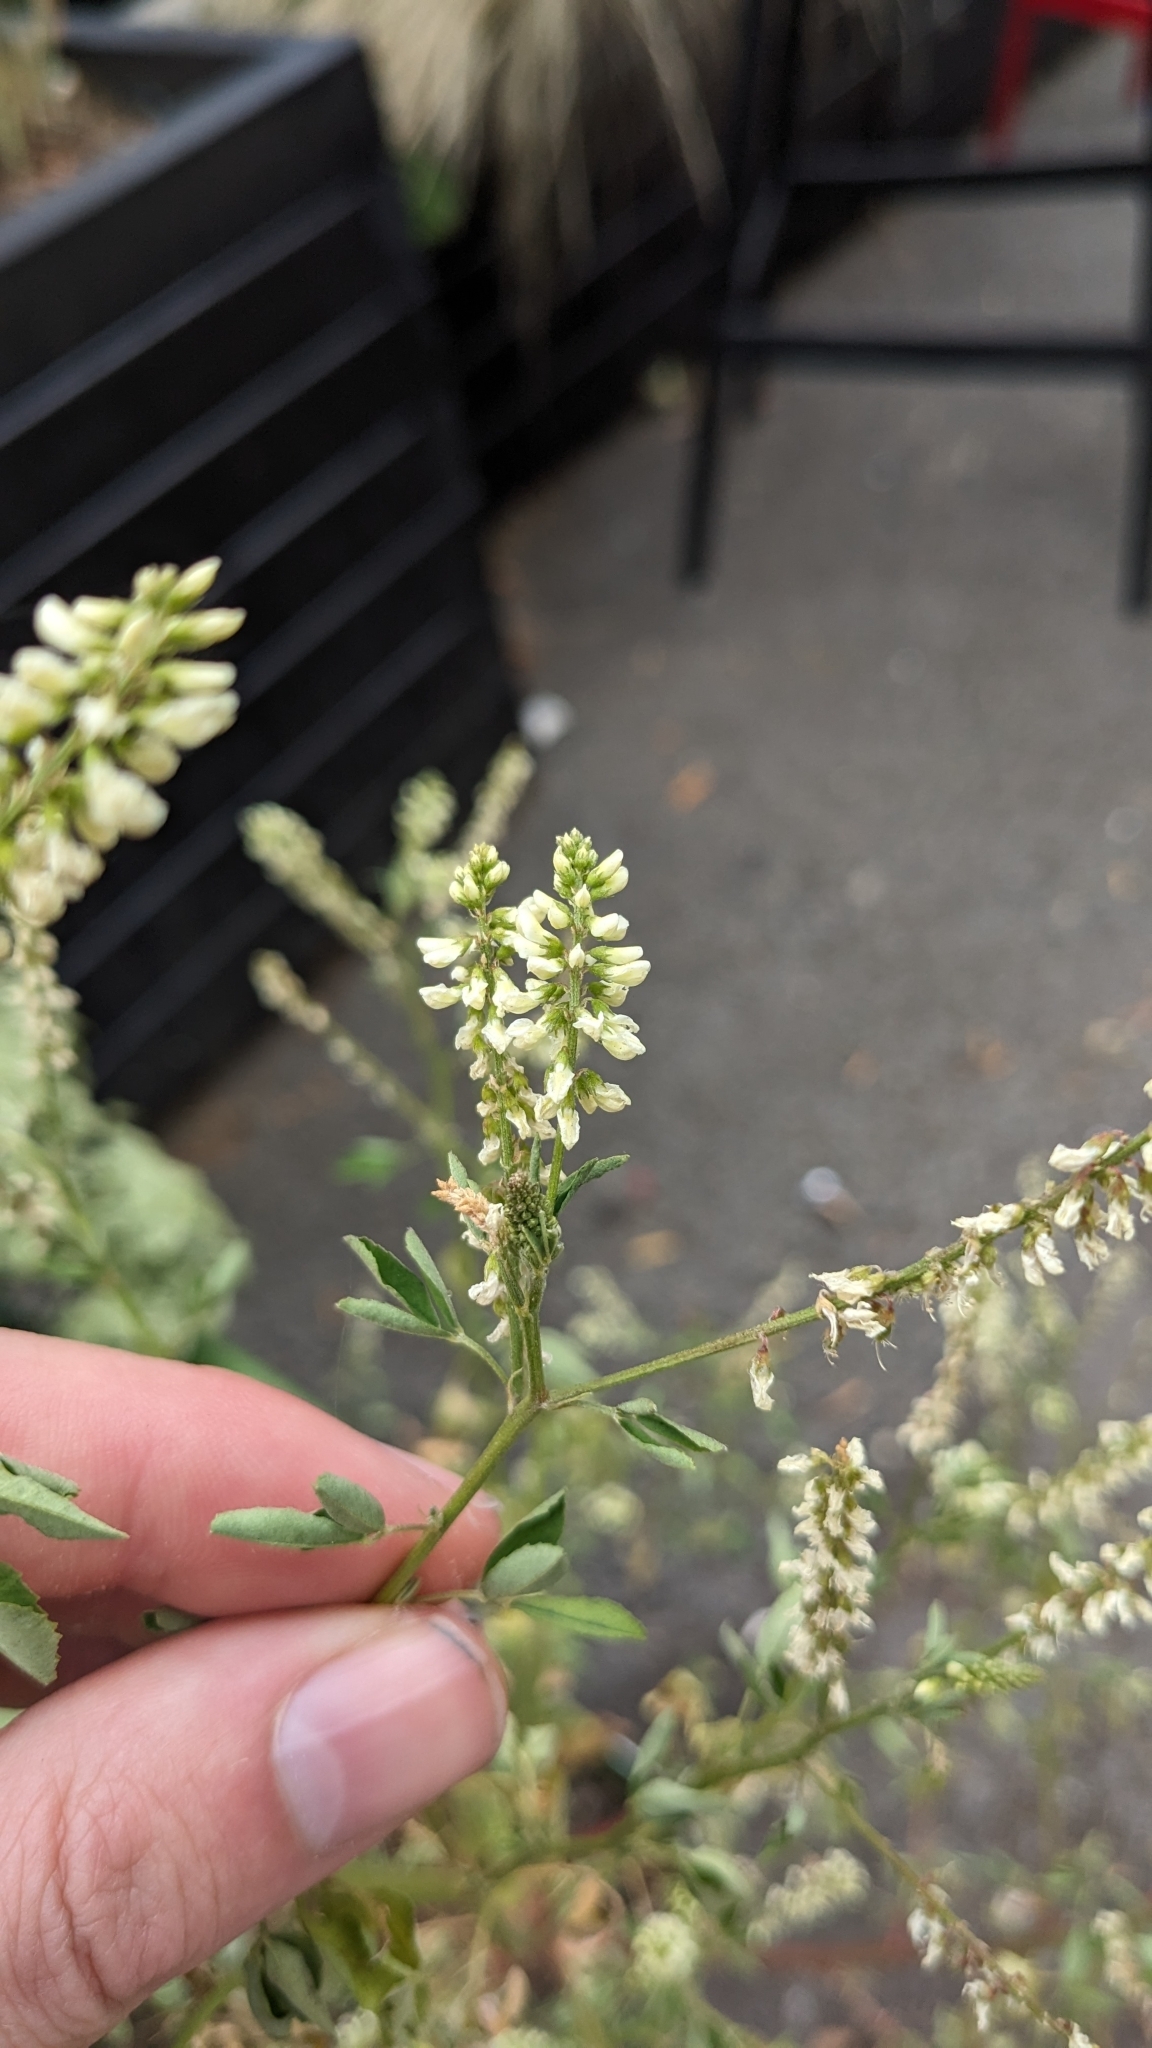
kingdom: Plantae
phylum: Tracheophyta
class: Magnoliopsida
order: Fabales
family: Fabaceae
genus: Melilotus
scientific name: Melilotus albus
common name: White melilot
